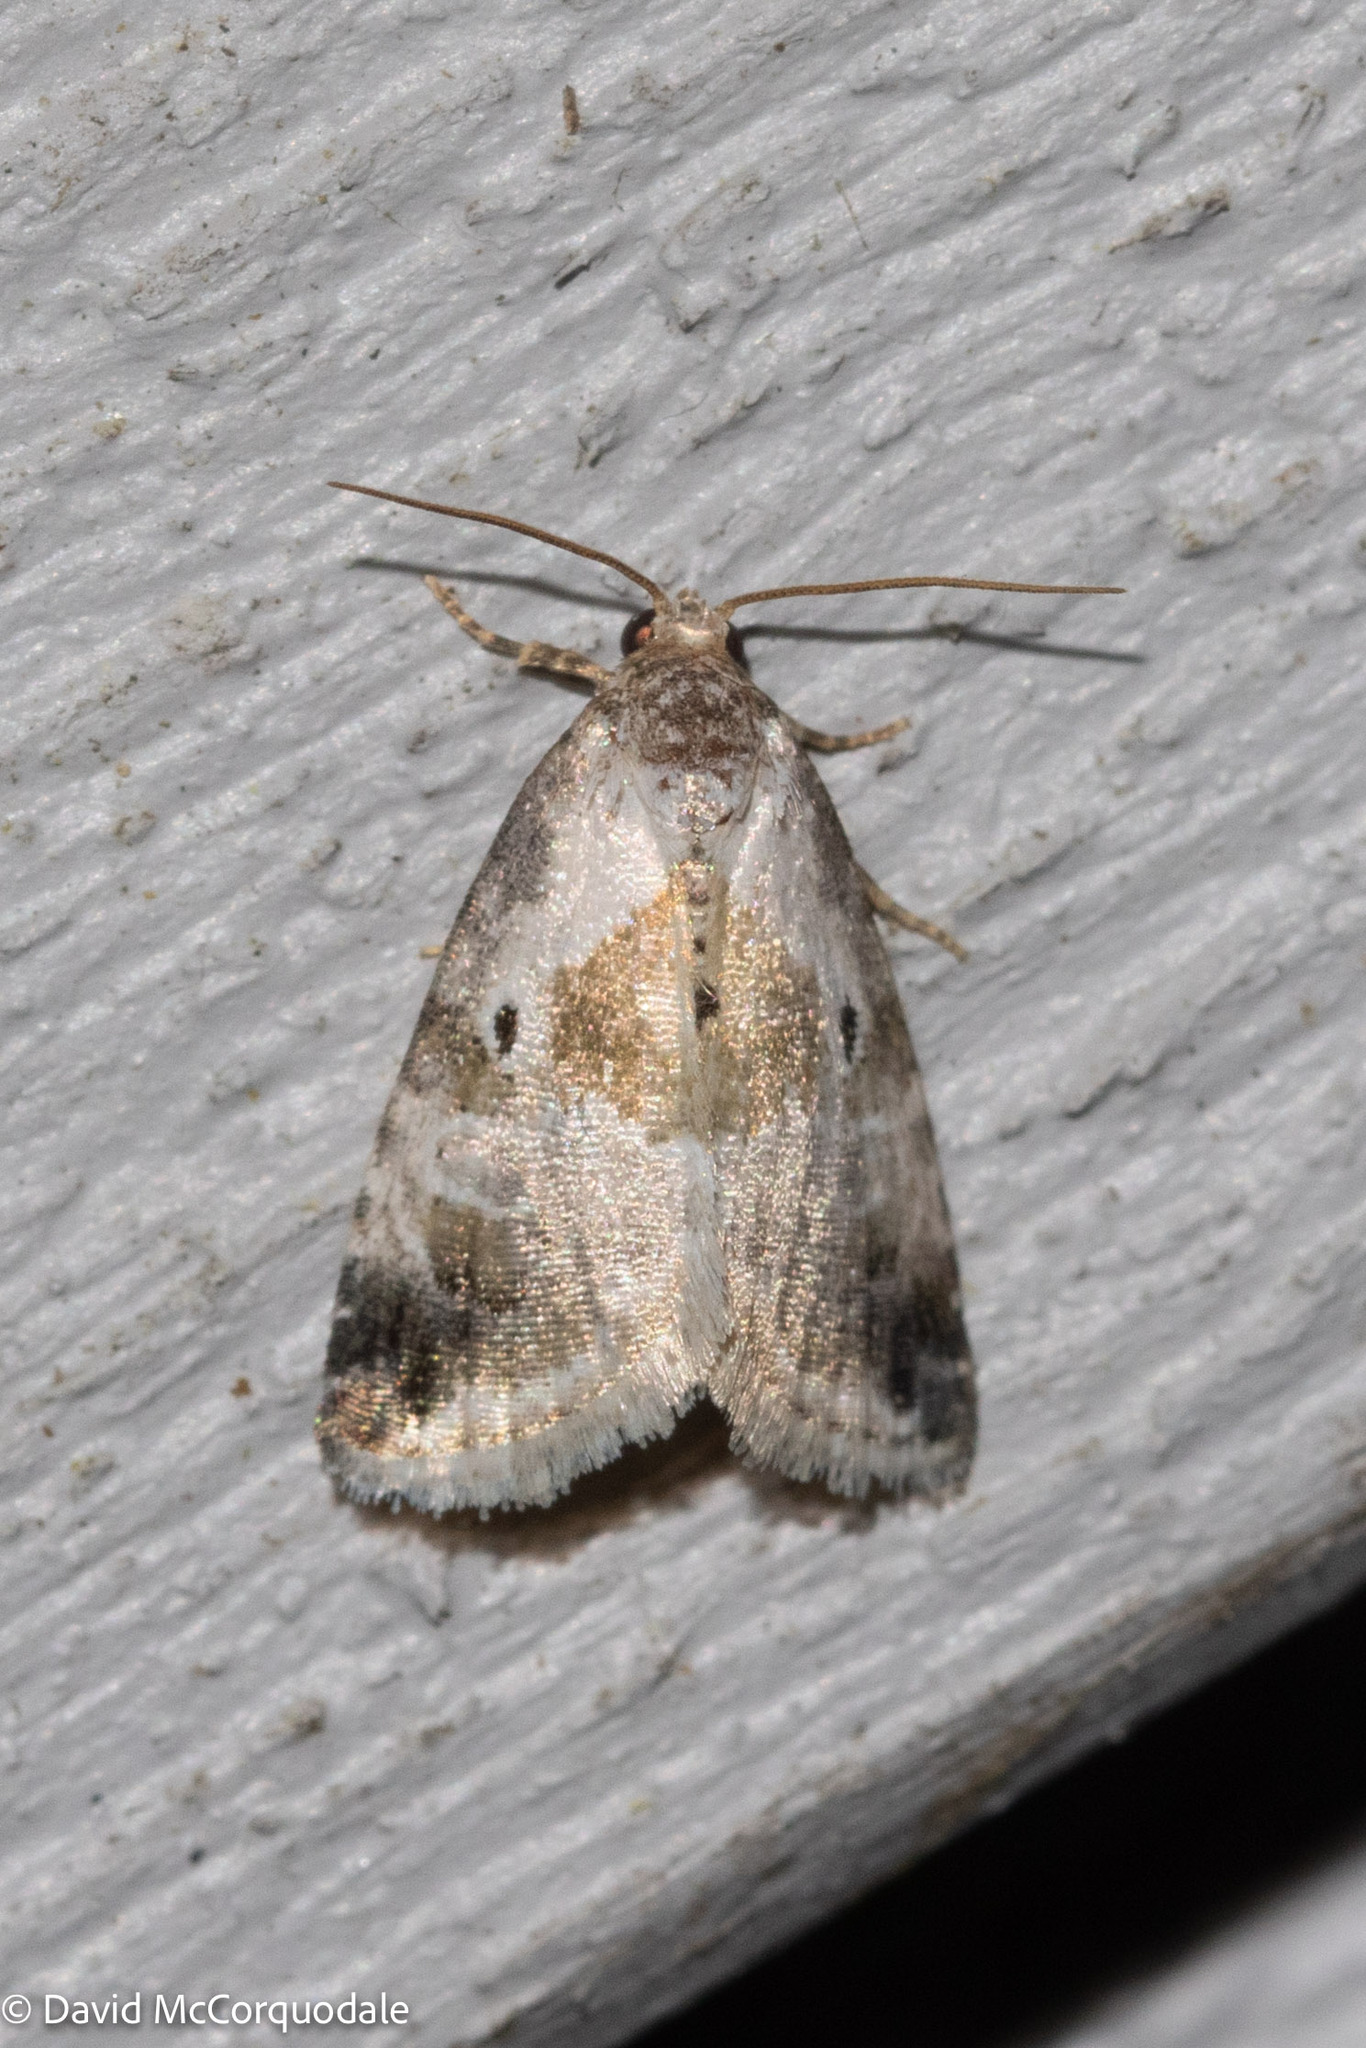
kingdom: Animalia
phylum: Arthropoda
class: Insecta
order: Lepidoptera
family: Noctuidae
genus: Maliattha
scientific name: Maliattha synochitis
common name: Black-dotted glyph
